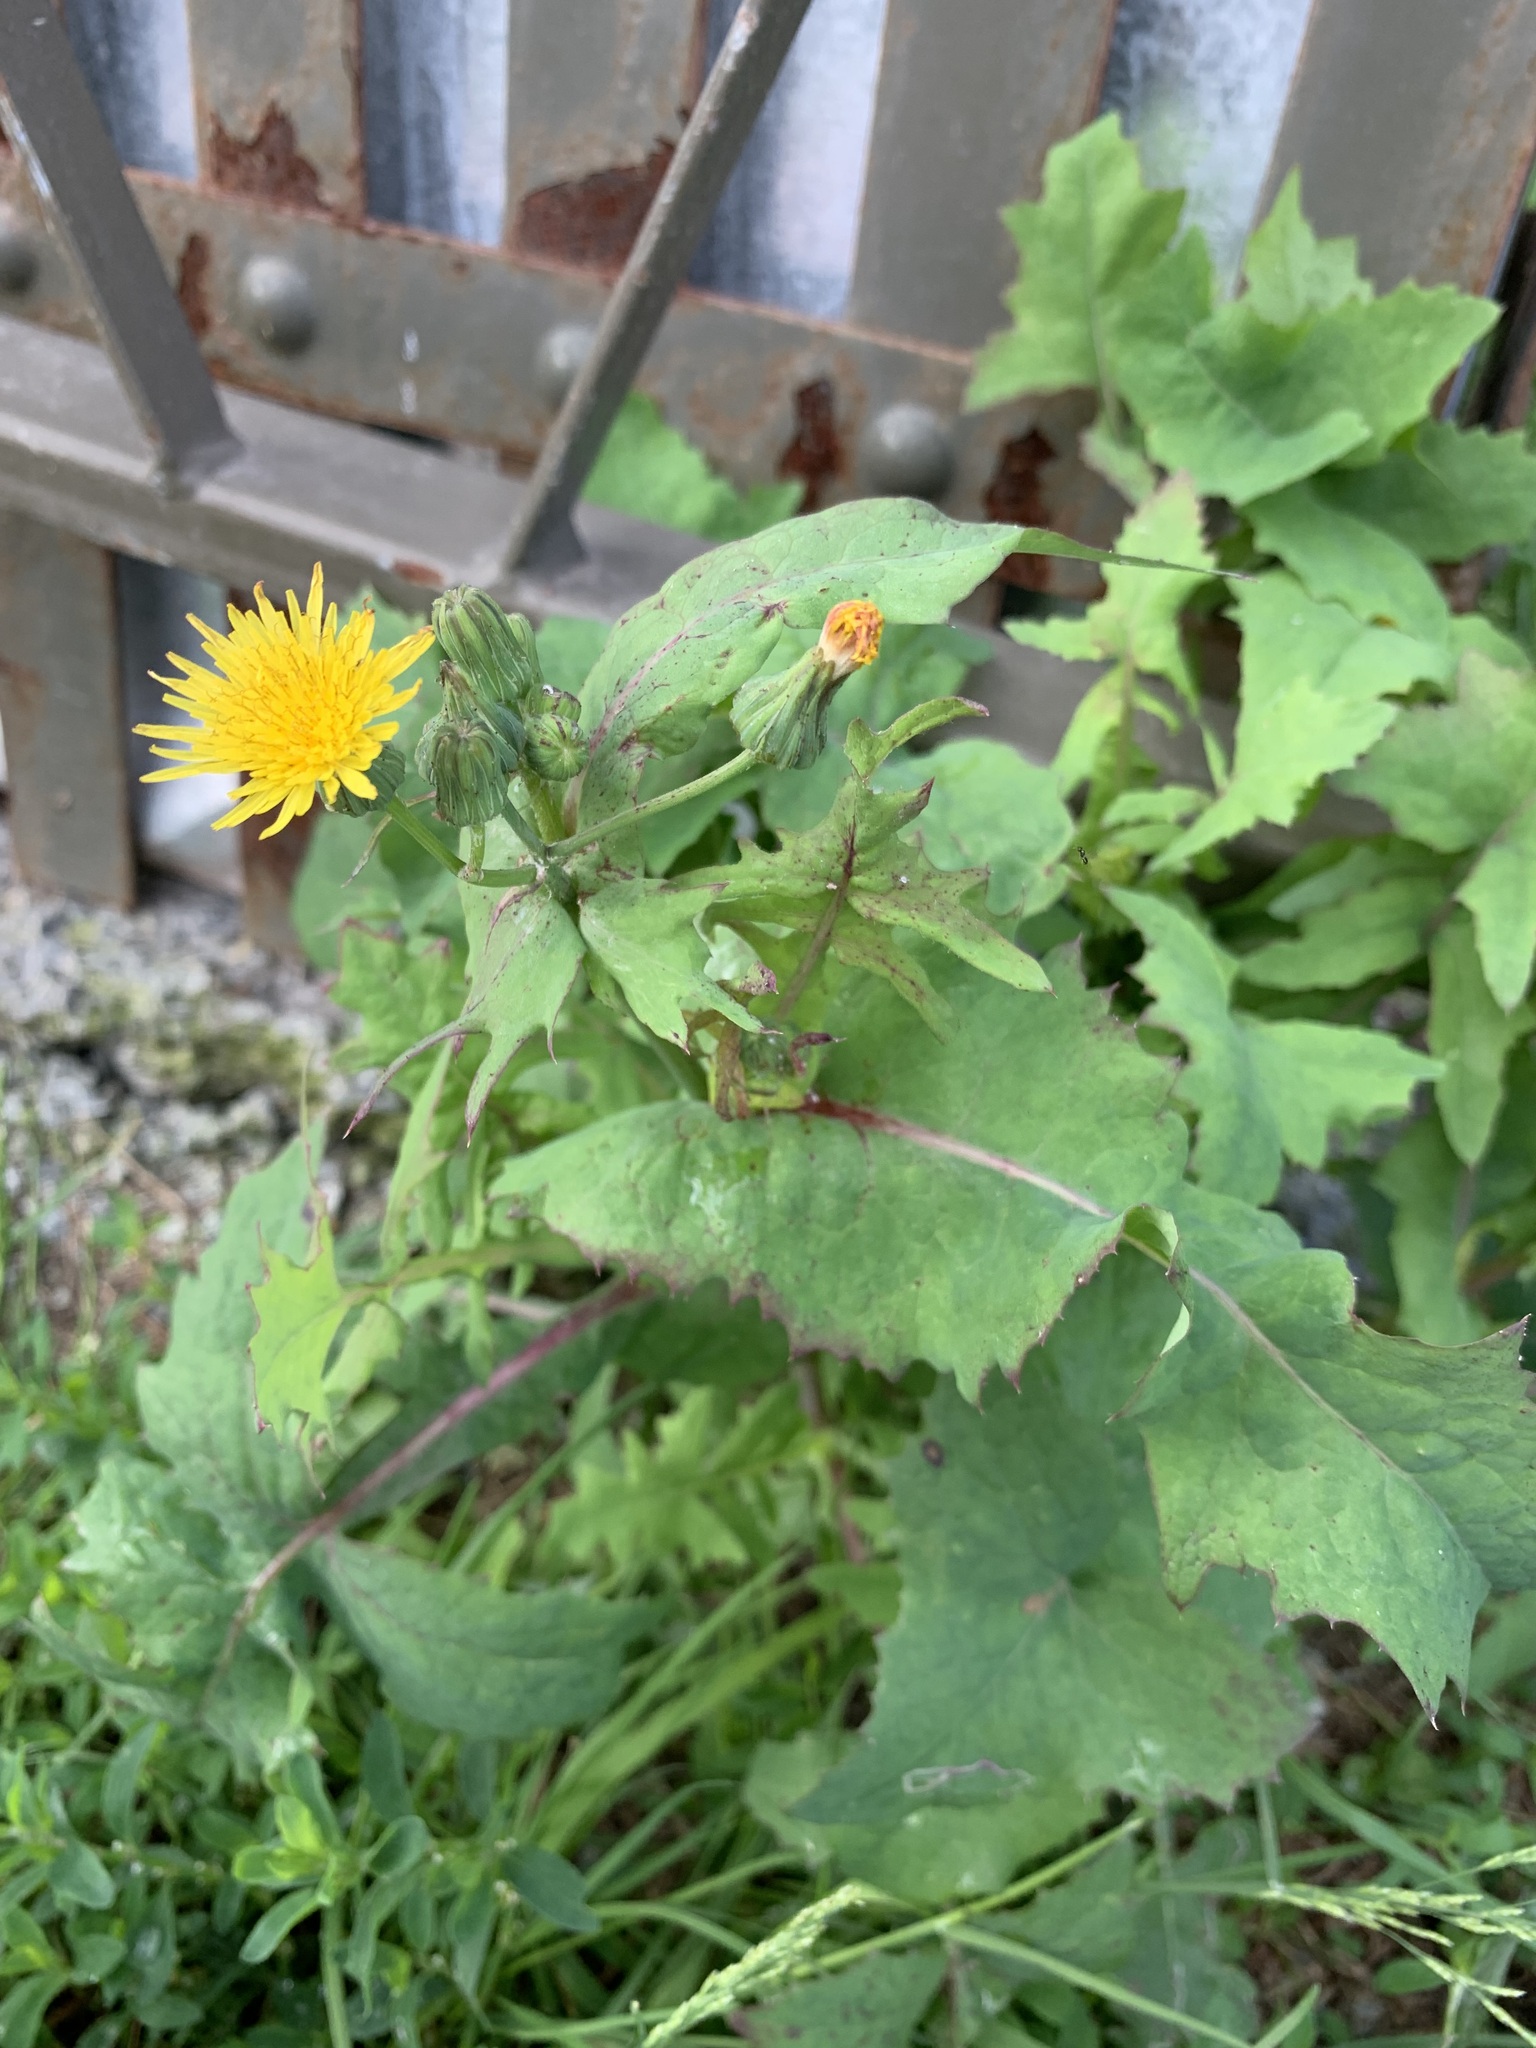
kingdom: Plantae
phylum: Tracheophyta
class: Magnoliopsida
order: Asterales
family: Asteraceae
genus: Sonchus
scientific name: Sonchus oleraceus
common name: Common sowthistle
